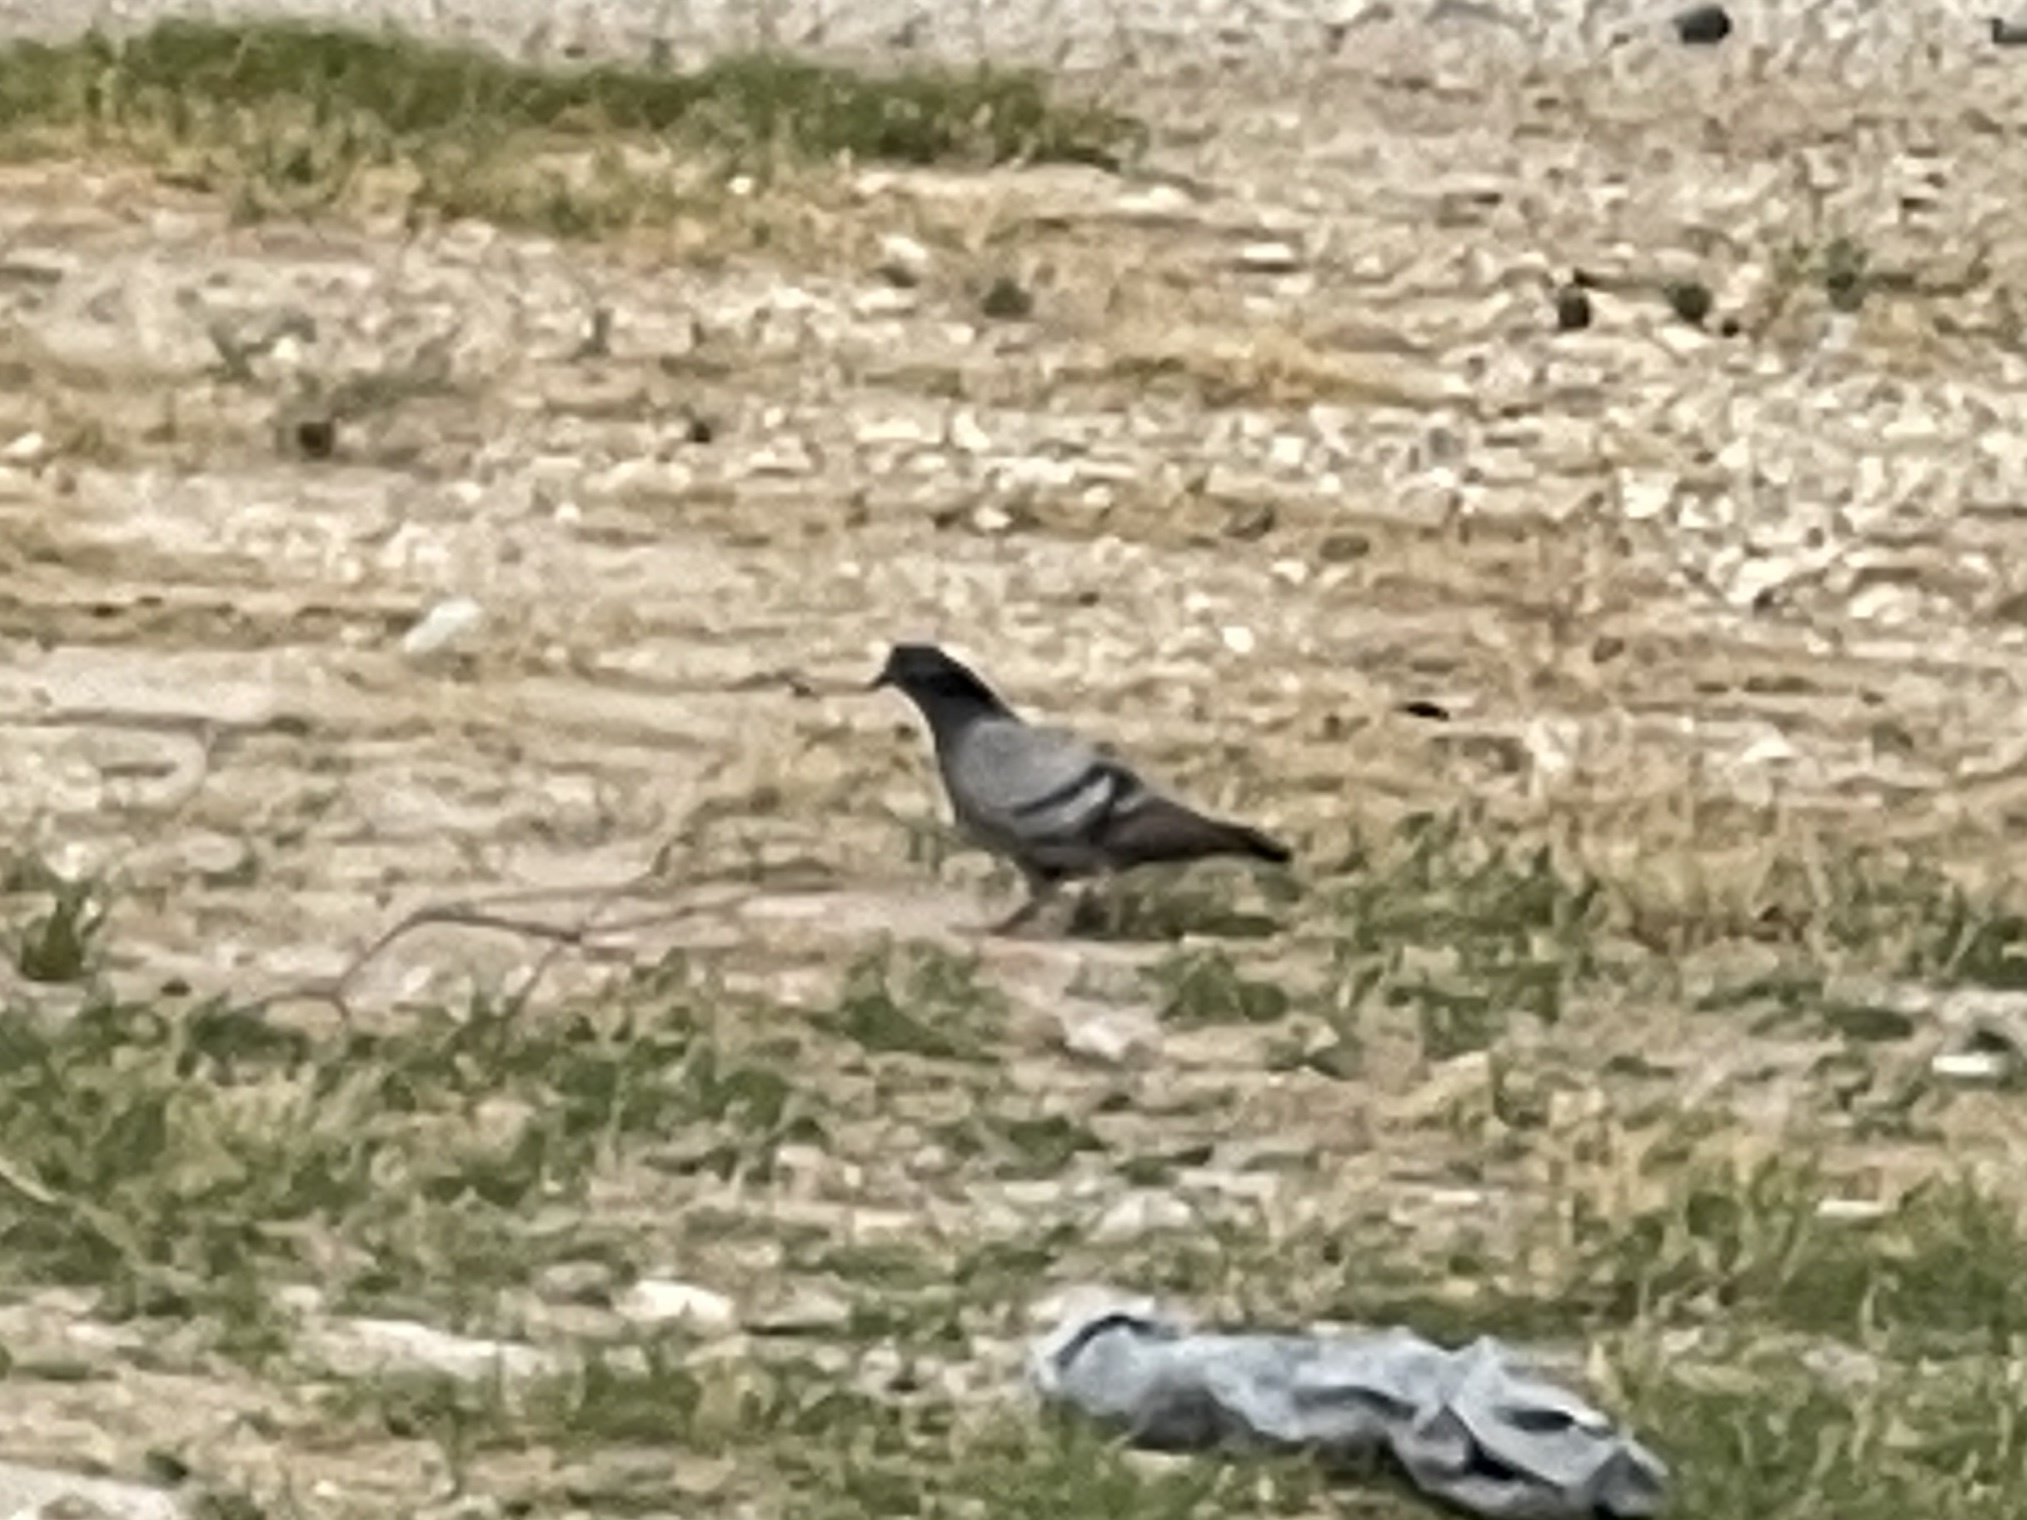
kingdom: Animalia
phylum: Chordata
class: Aves
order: Columbiformes
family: Columbidae
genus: Columba
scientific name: Columba livia
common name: Rock pigeon
